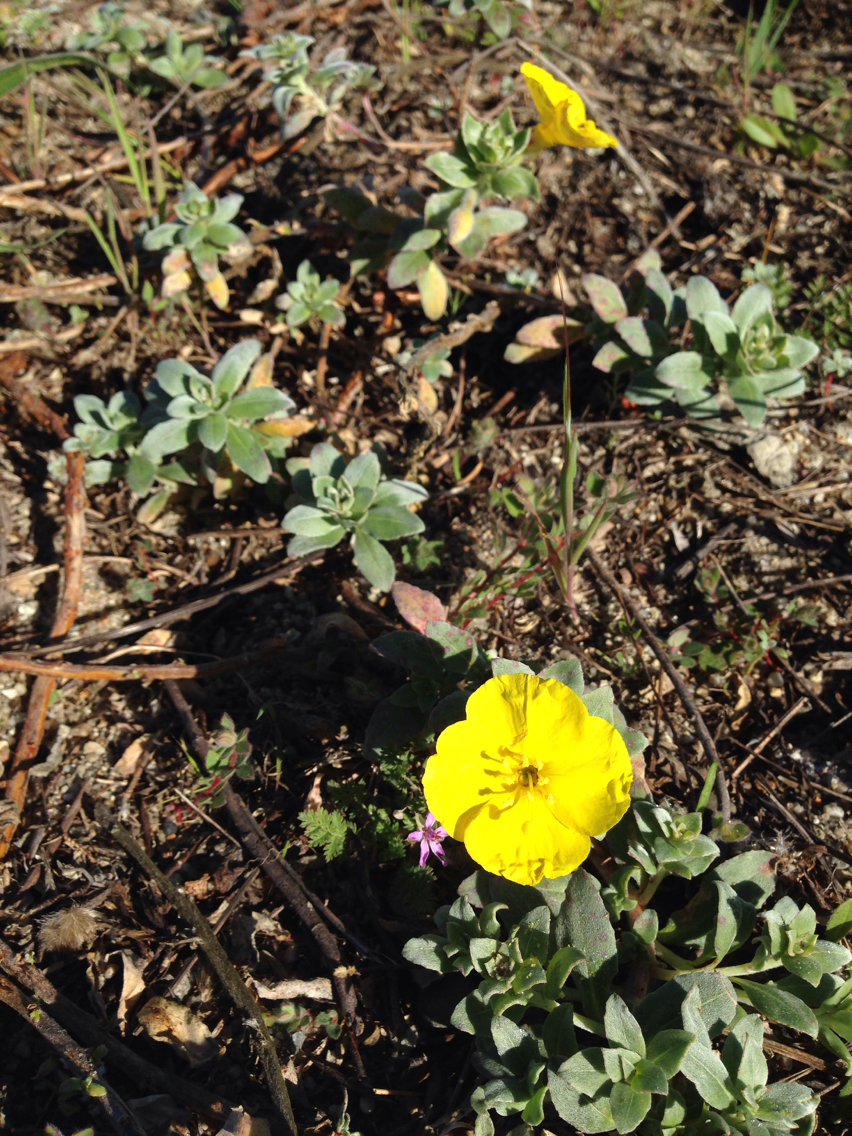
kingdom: Plantae
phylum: Tracheophyta
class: Magnoliopsida
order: Myrtales
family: Onagraceae
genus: Camissoniopsis
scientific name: Camissoniopsis cheiranthifolia
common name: Beach suncup
